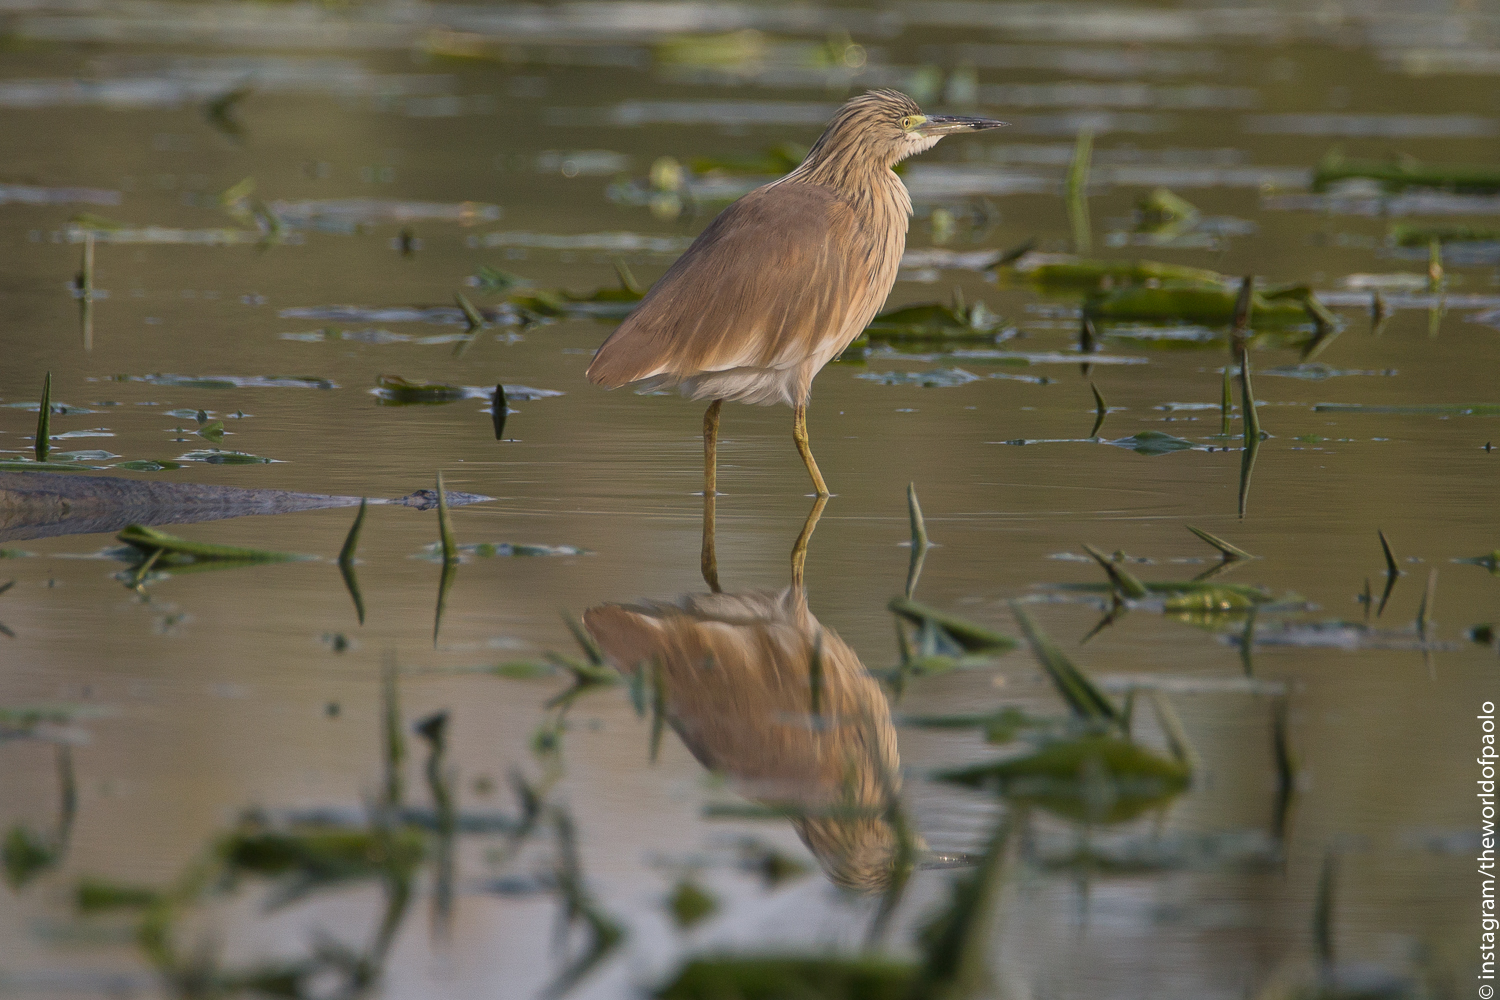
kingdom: Animalia
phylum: Chordata
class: Aves
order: Pelecaniformes
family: Ardeidae
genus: Ardeola
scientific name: Ardeola ralloides
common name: Squacco heron
